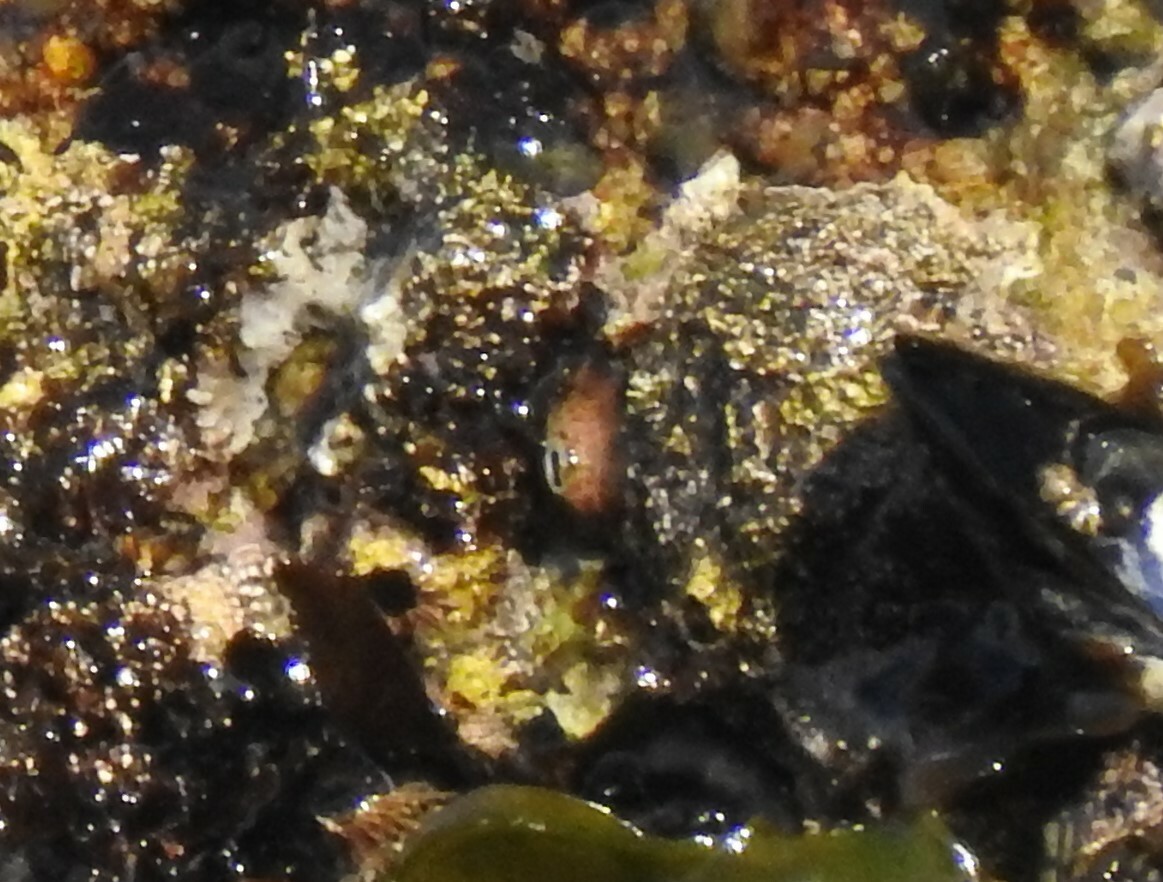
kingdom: Animalia
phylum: Mollusca
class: Gastropoda
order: Lepetellida
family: Fissurellidae
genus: Fissurella
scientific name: Fissurella volcano
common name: Volcano keyhole limpet
